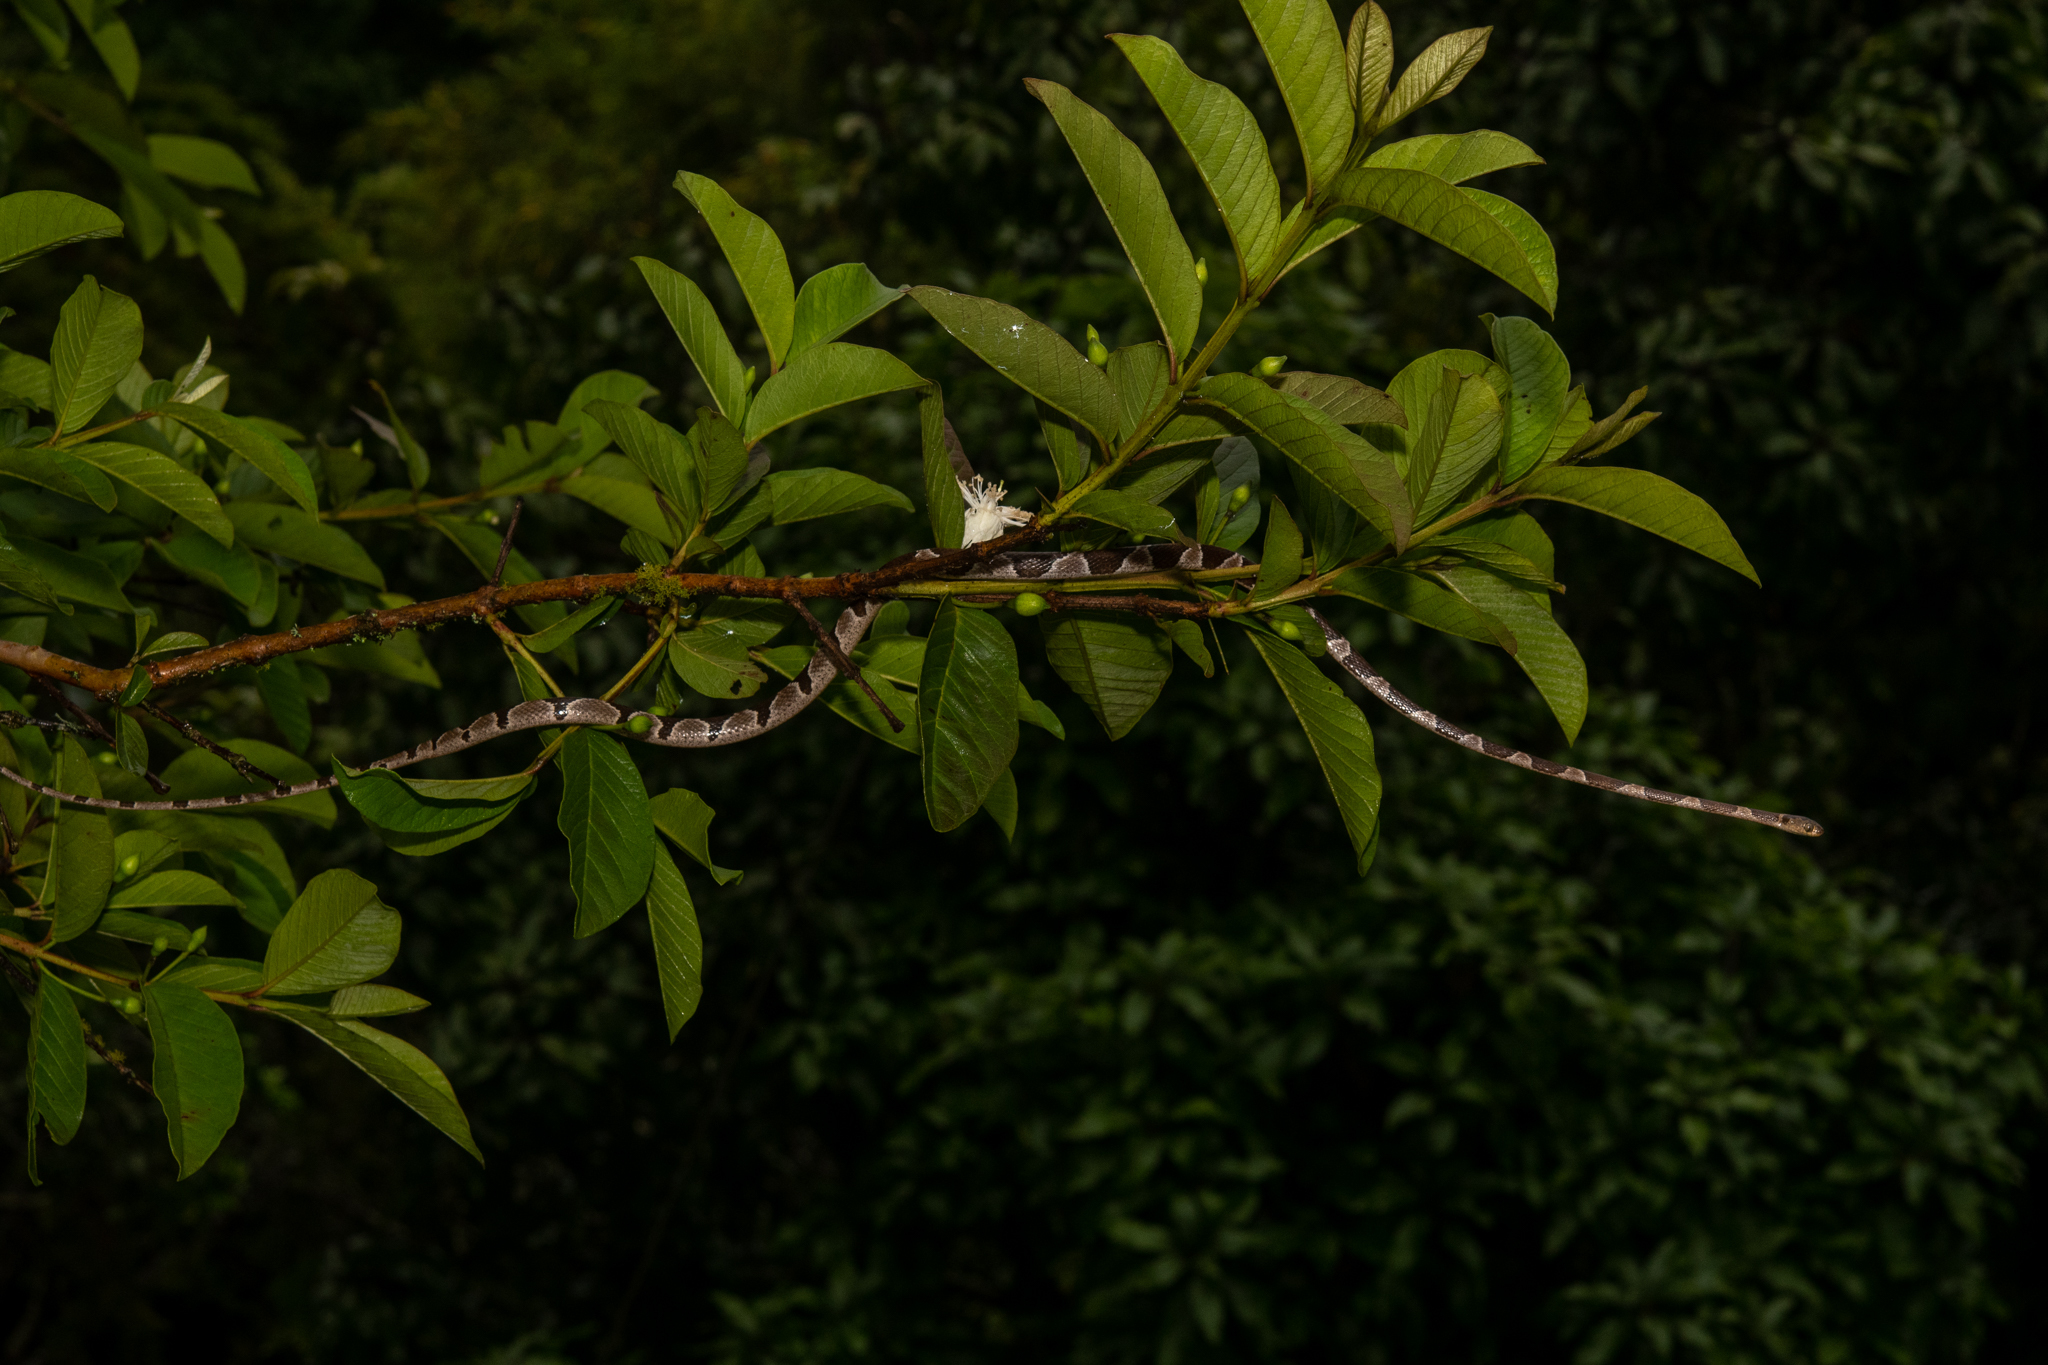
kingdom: Animalia
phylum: Chordata
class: Squamata
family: Colubridae
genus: Imantodes
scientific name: Imantodes cenchoa
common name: Blunthead tree snake
